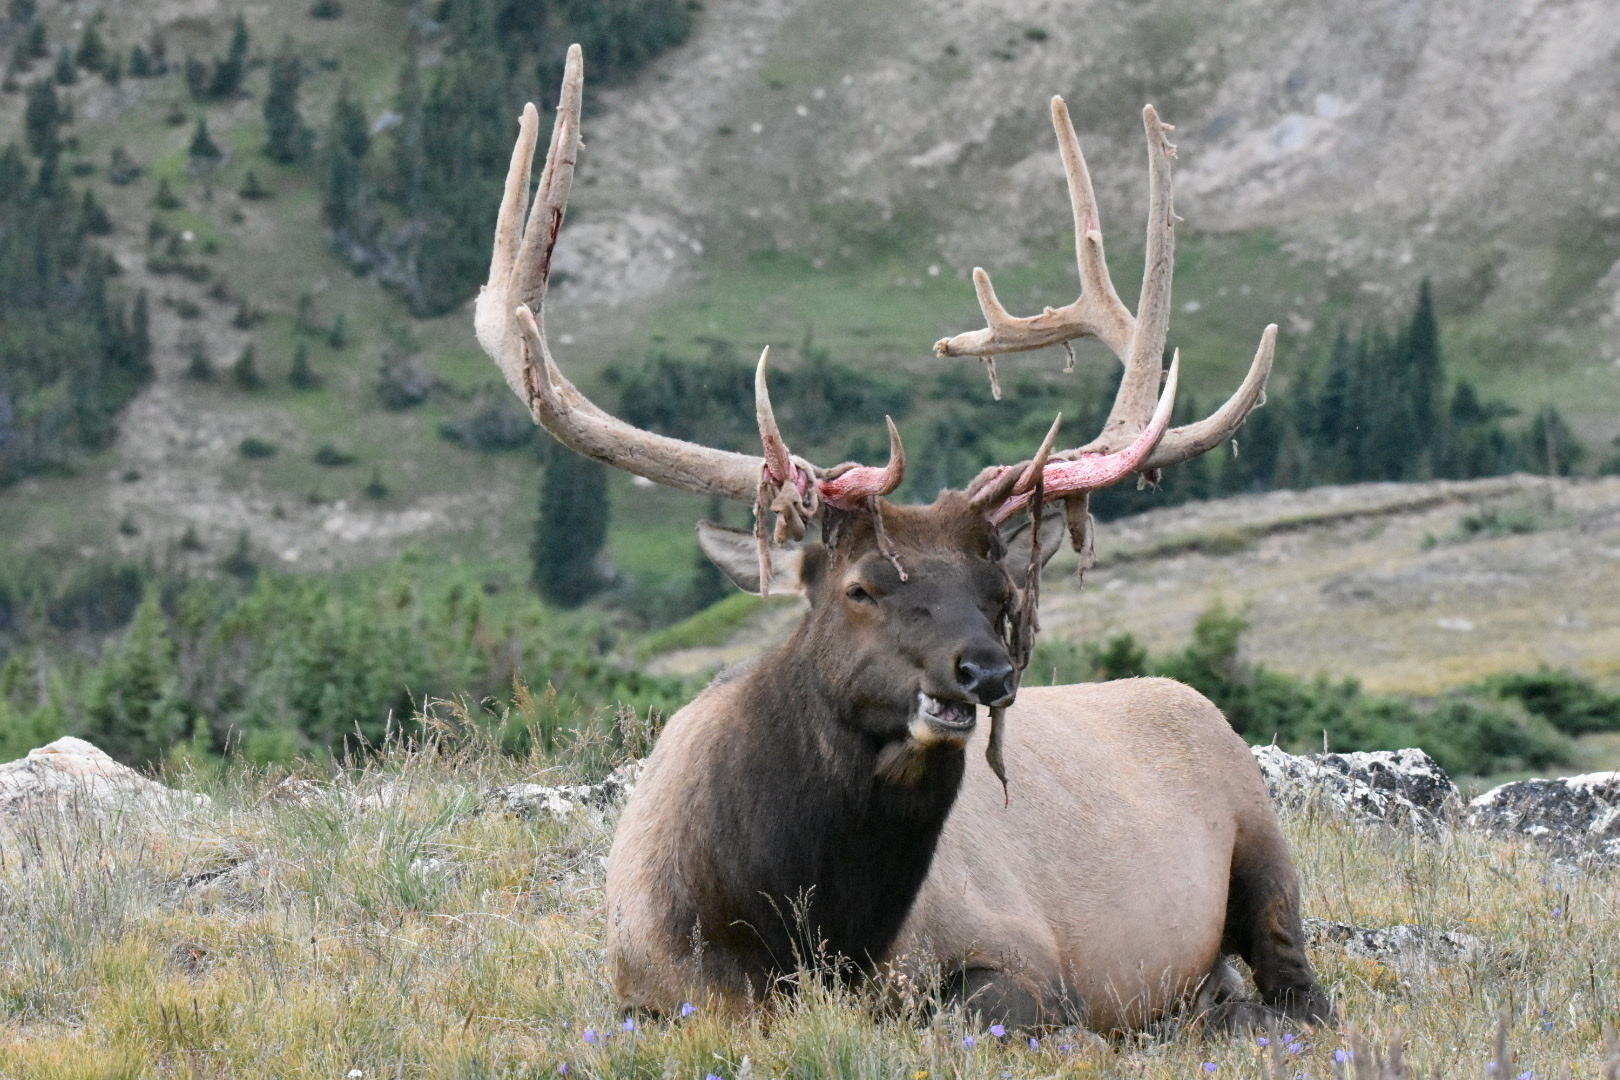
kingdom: Animalia
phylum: Chordata
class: Mammalia
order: Artiodactyla
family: Cervidae
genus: Cervus
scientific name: Cervus elaphus
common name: Red deer
